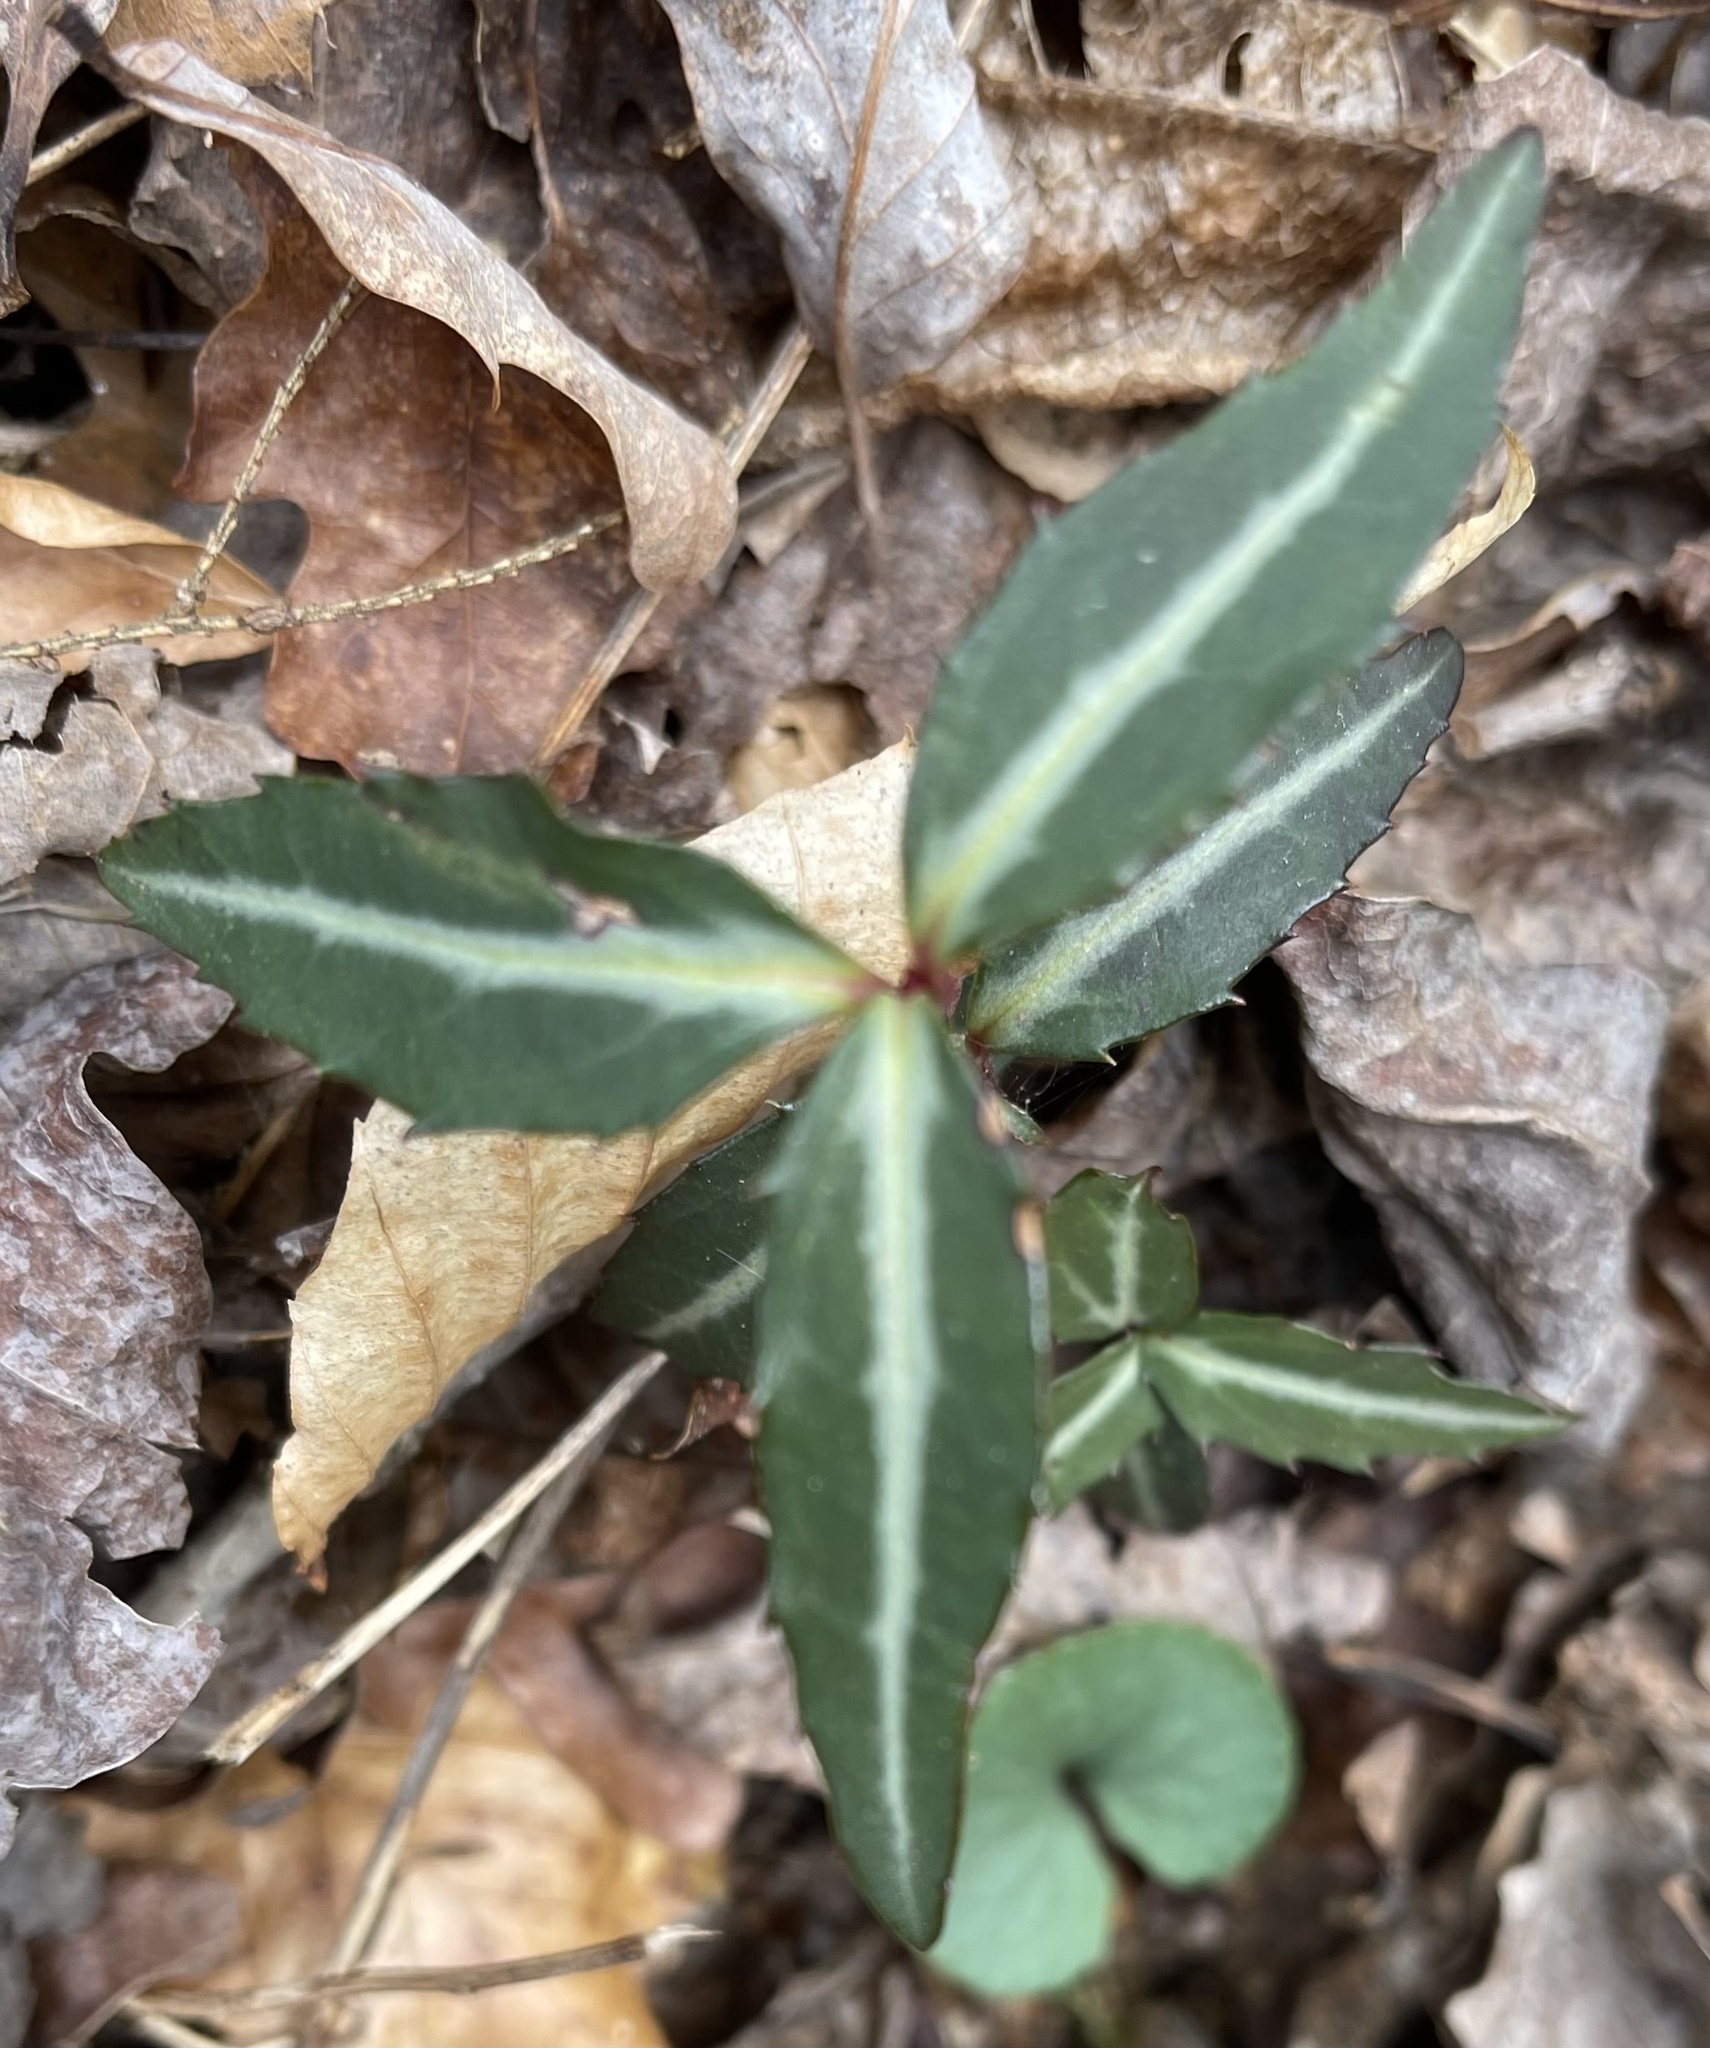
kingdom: Plantae
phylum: Tracheophyta
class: Magnoliopsida
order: Ericales
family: Ericaceae
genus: Chimaphila
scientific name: Chimaphila maculata
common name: Spotted pipsissewa
